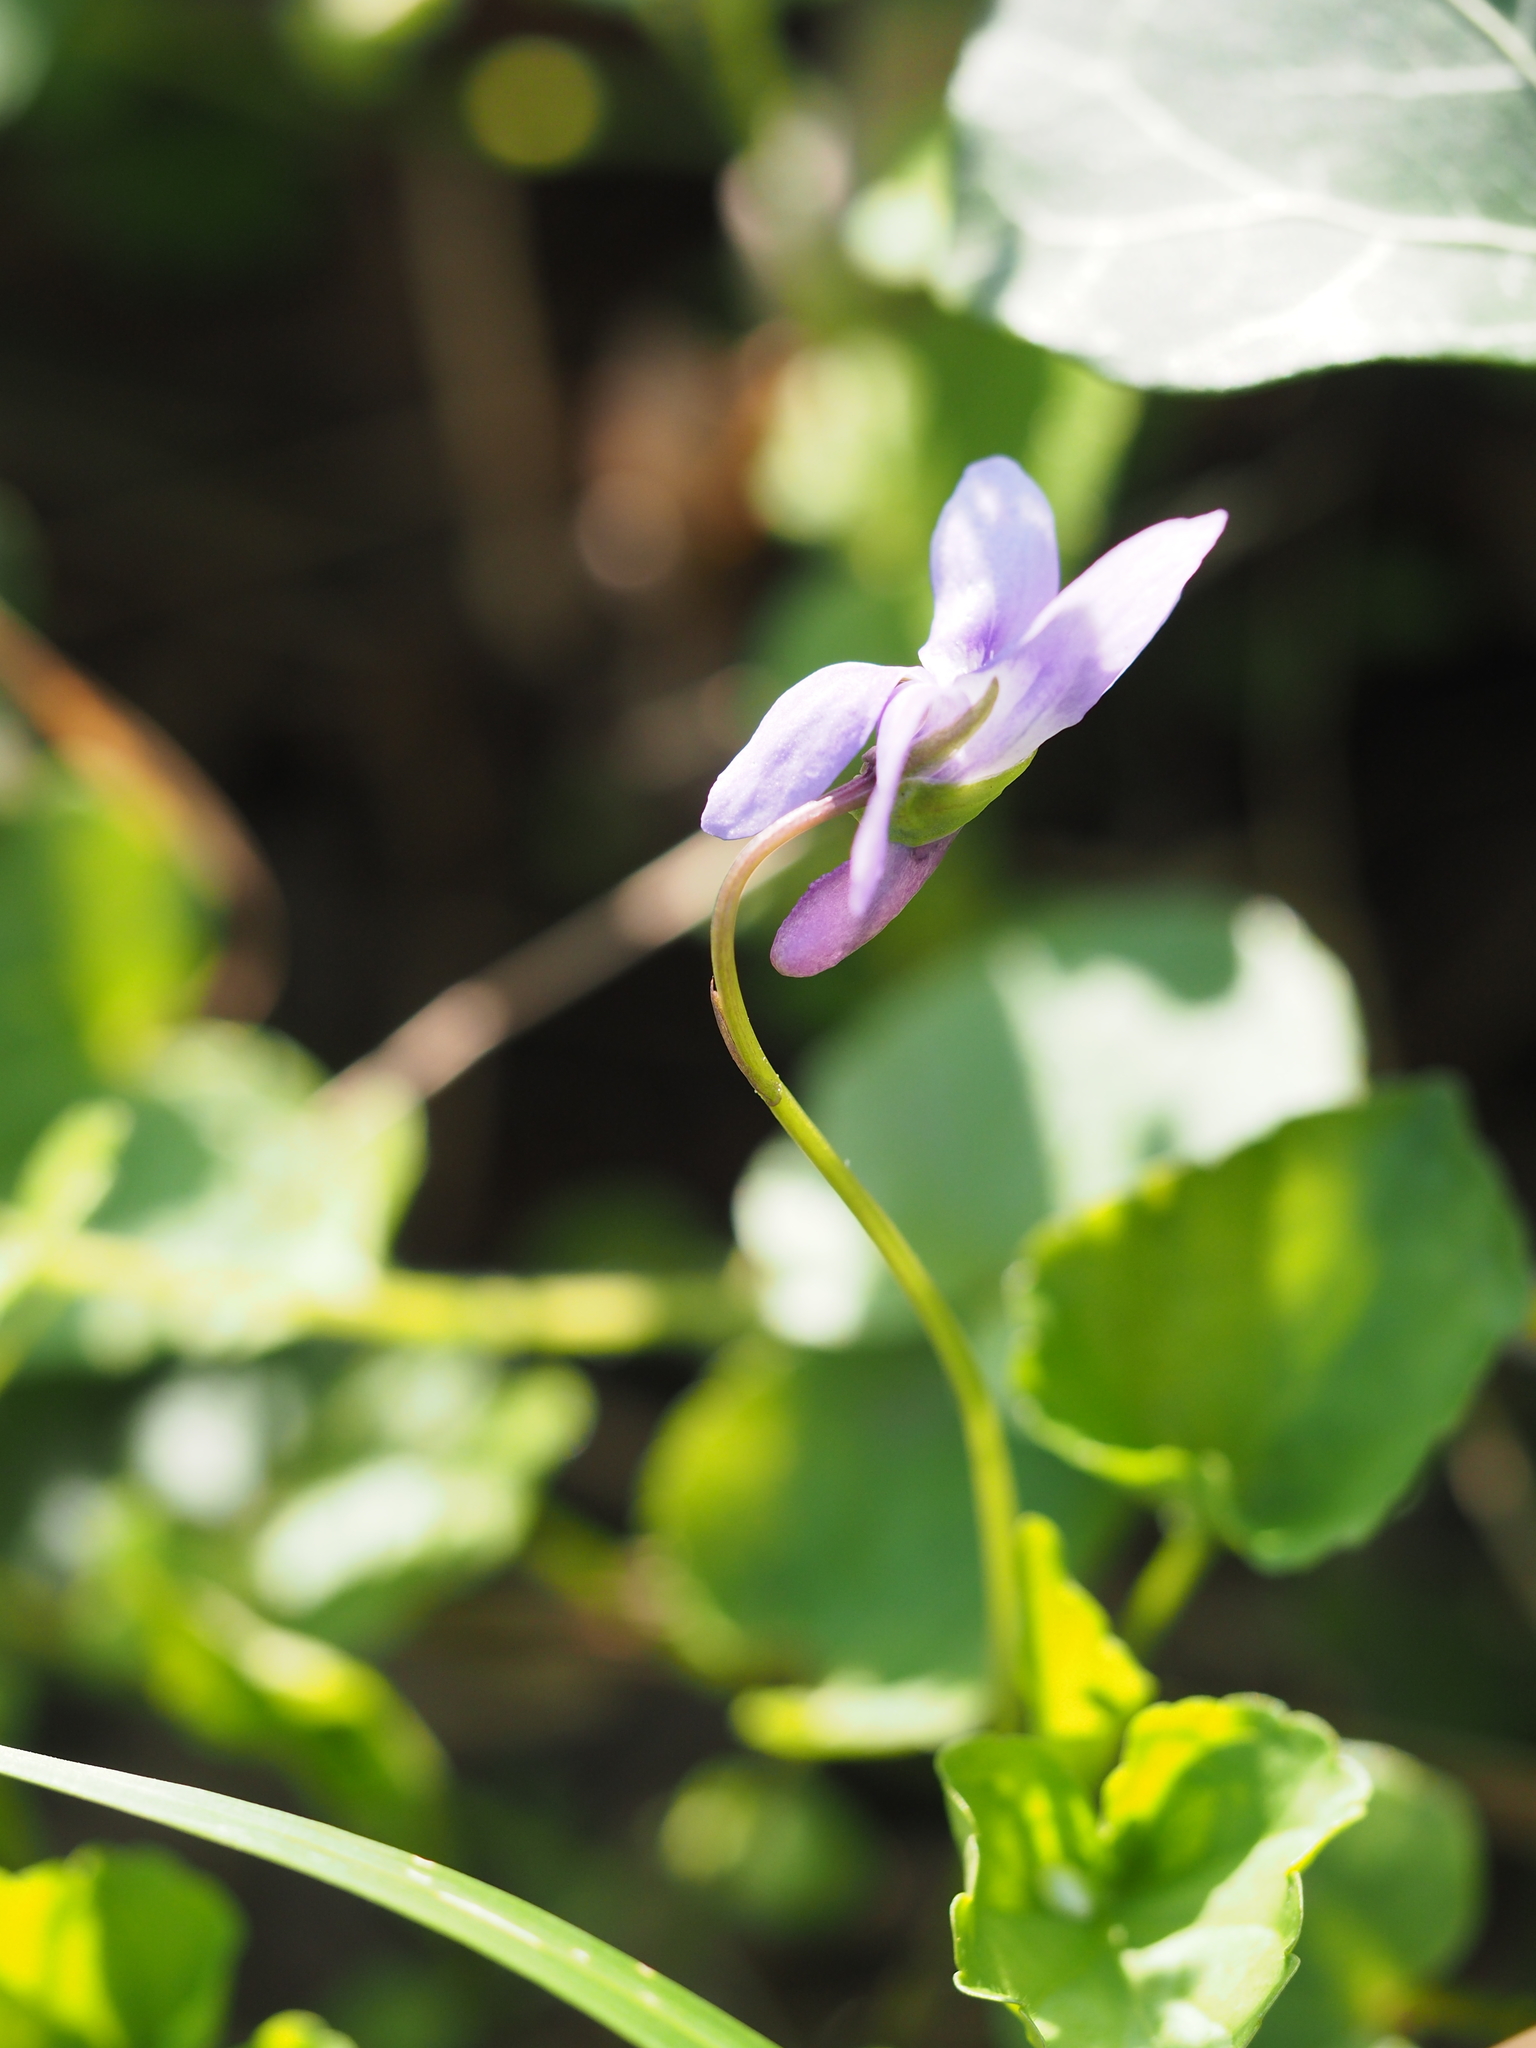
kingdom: Plantae
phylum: Tracheophyta
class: Magnoliopsida
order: Malpighiales
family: Violaceae
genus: Viola
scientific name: Viola reichenbachiana
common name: Early dog-violet
